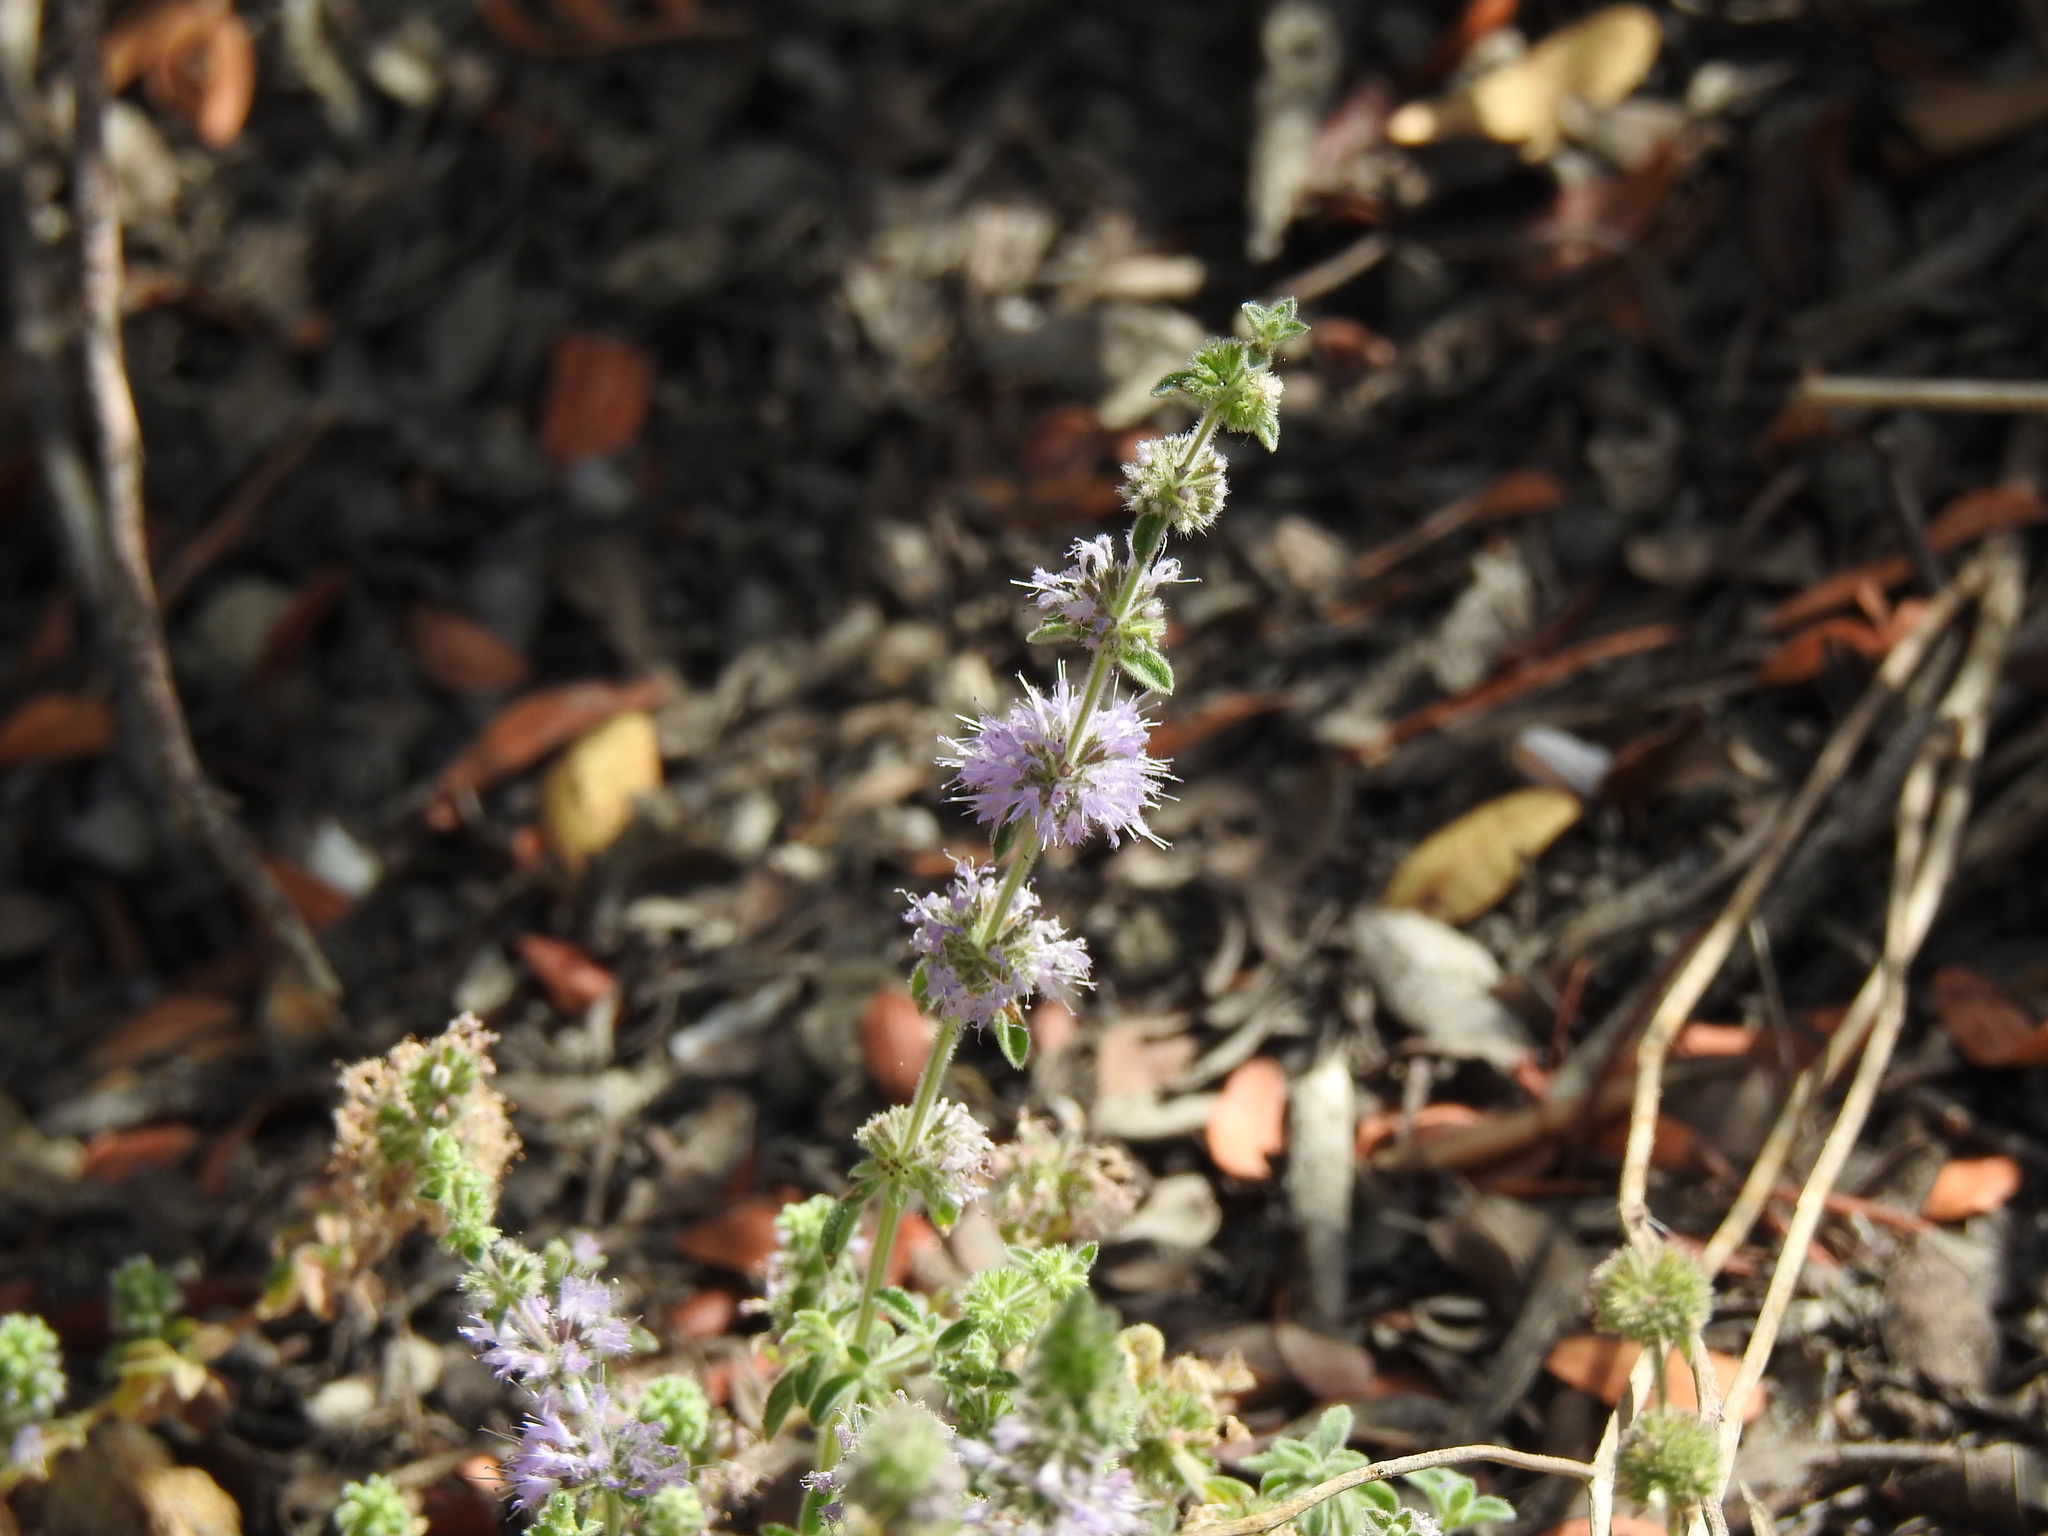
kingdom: Plantae
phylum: Tracheophyta
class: Magnoliopsida
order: Lamiales
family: Lamiaceae
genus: Mentha
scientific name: Mentha pulegium
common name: Pennyroyal
